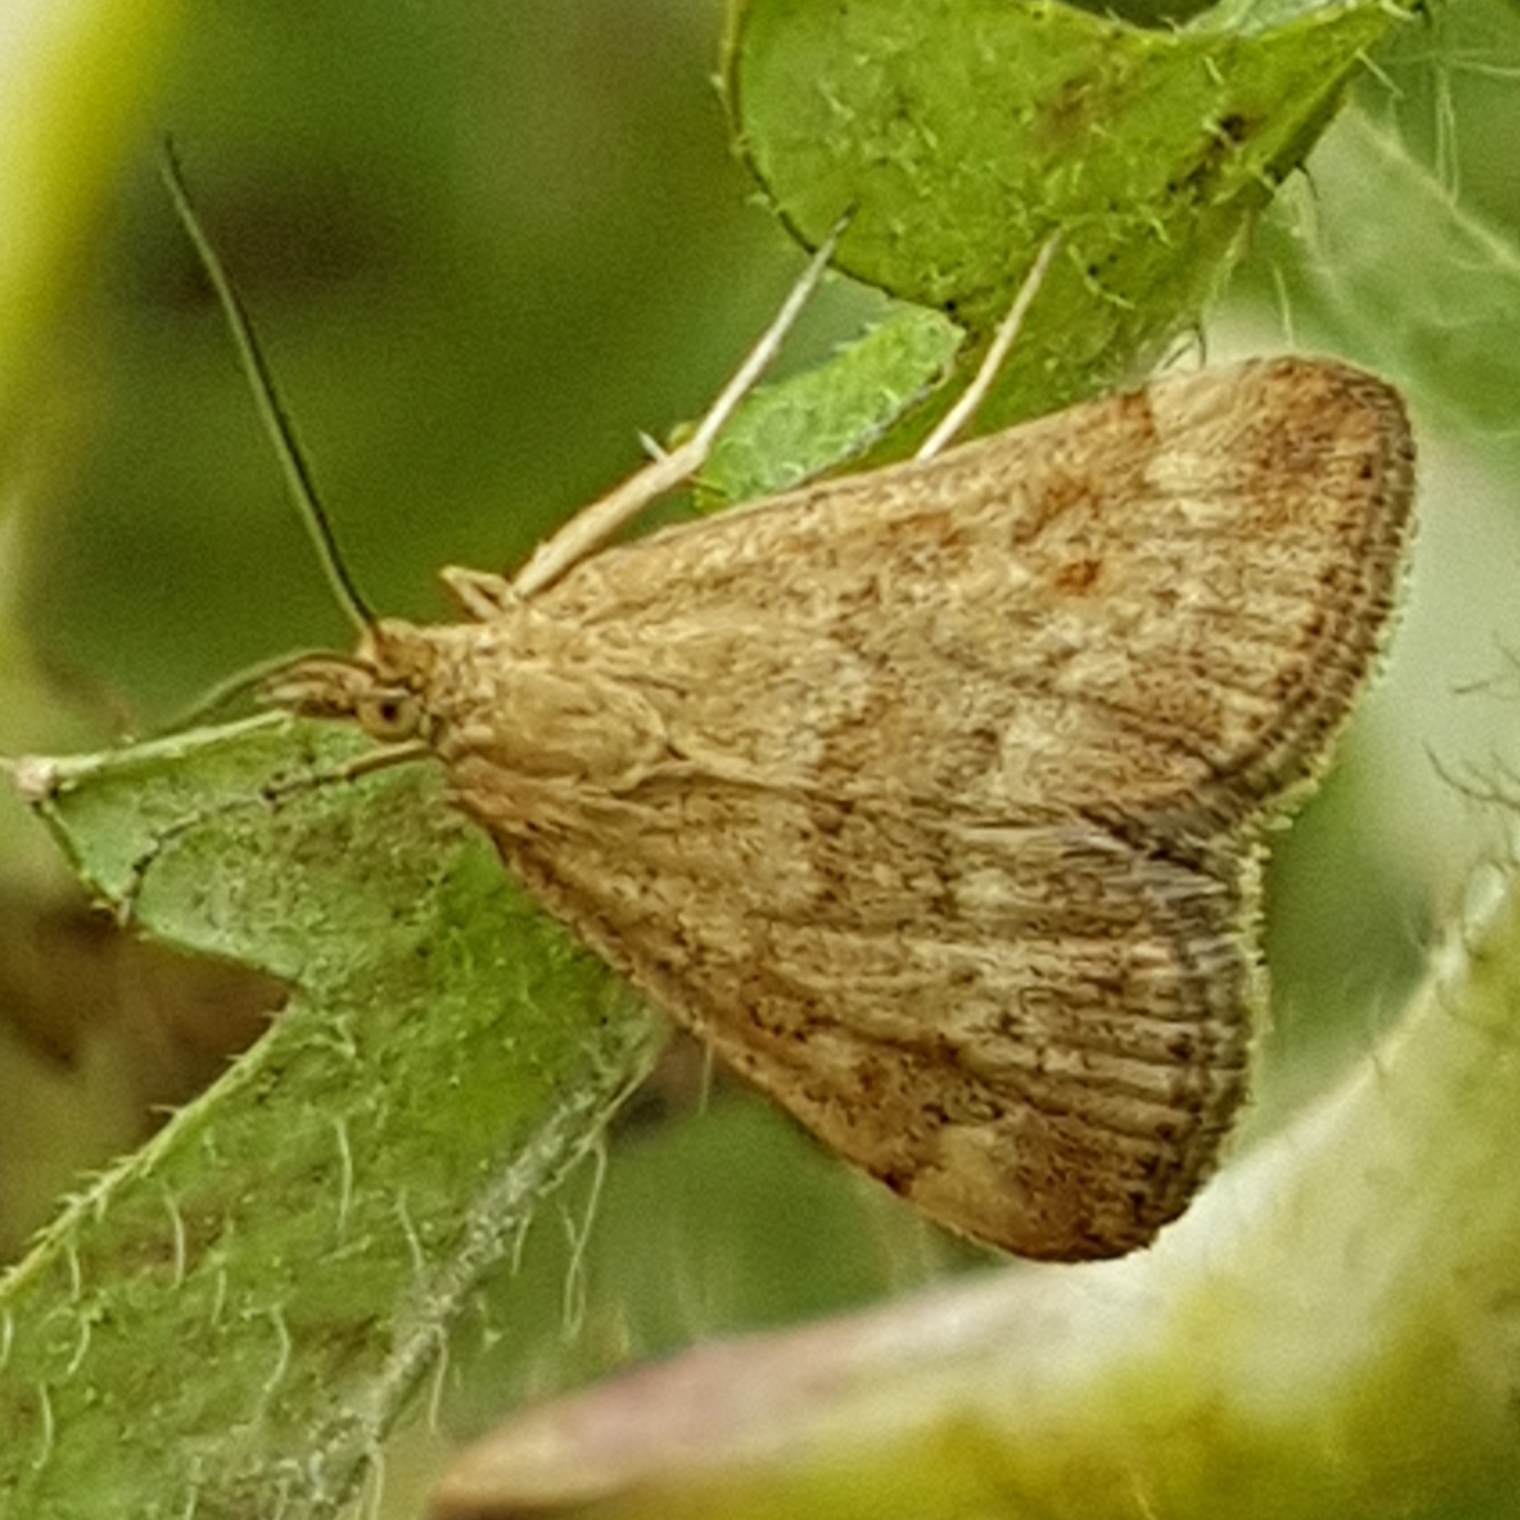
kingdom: Animalia
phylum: Arthropoda
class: Insecta
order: Lepidoptera
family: Crambidae
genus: Pyrausta
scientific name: Pyrausta despicata
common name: Straw-barred pearl
